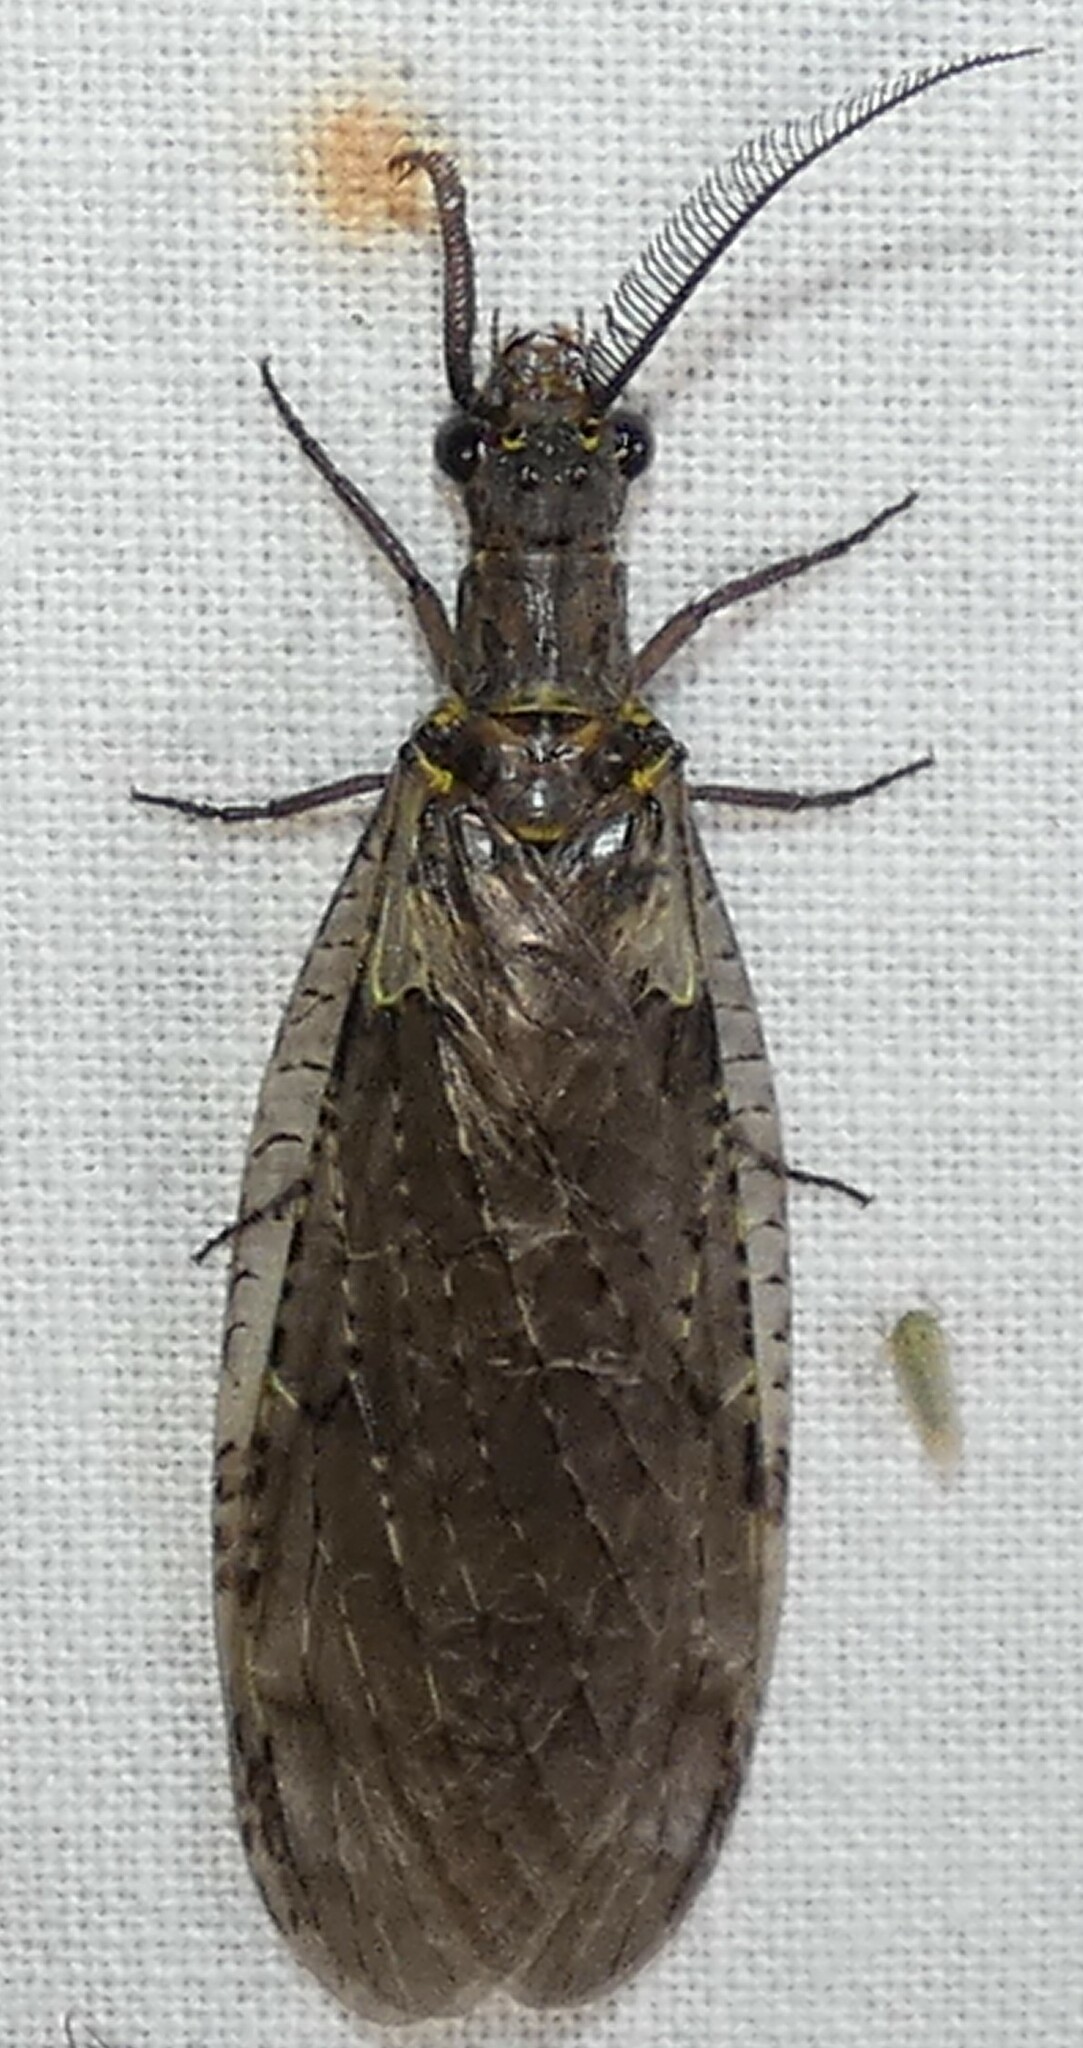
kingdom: Animalia
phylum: Arthropoda
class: Insecta
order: Megaloptera
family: Corydalidae
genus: Chauliodes
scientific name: Chauliodes rastricornis
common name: Spring fishfly
